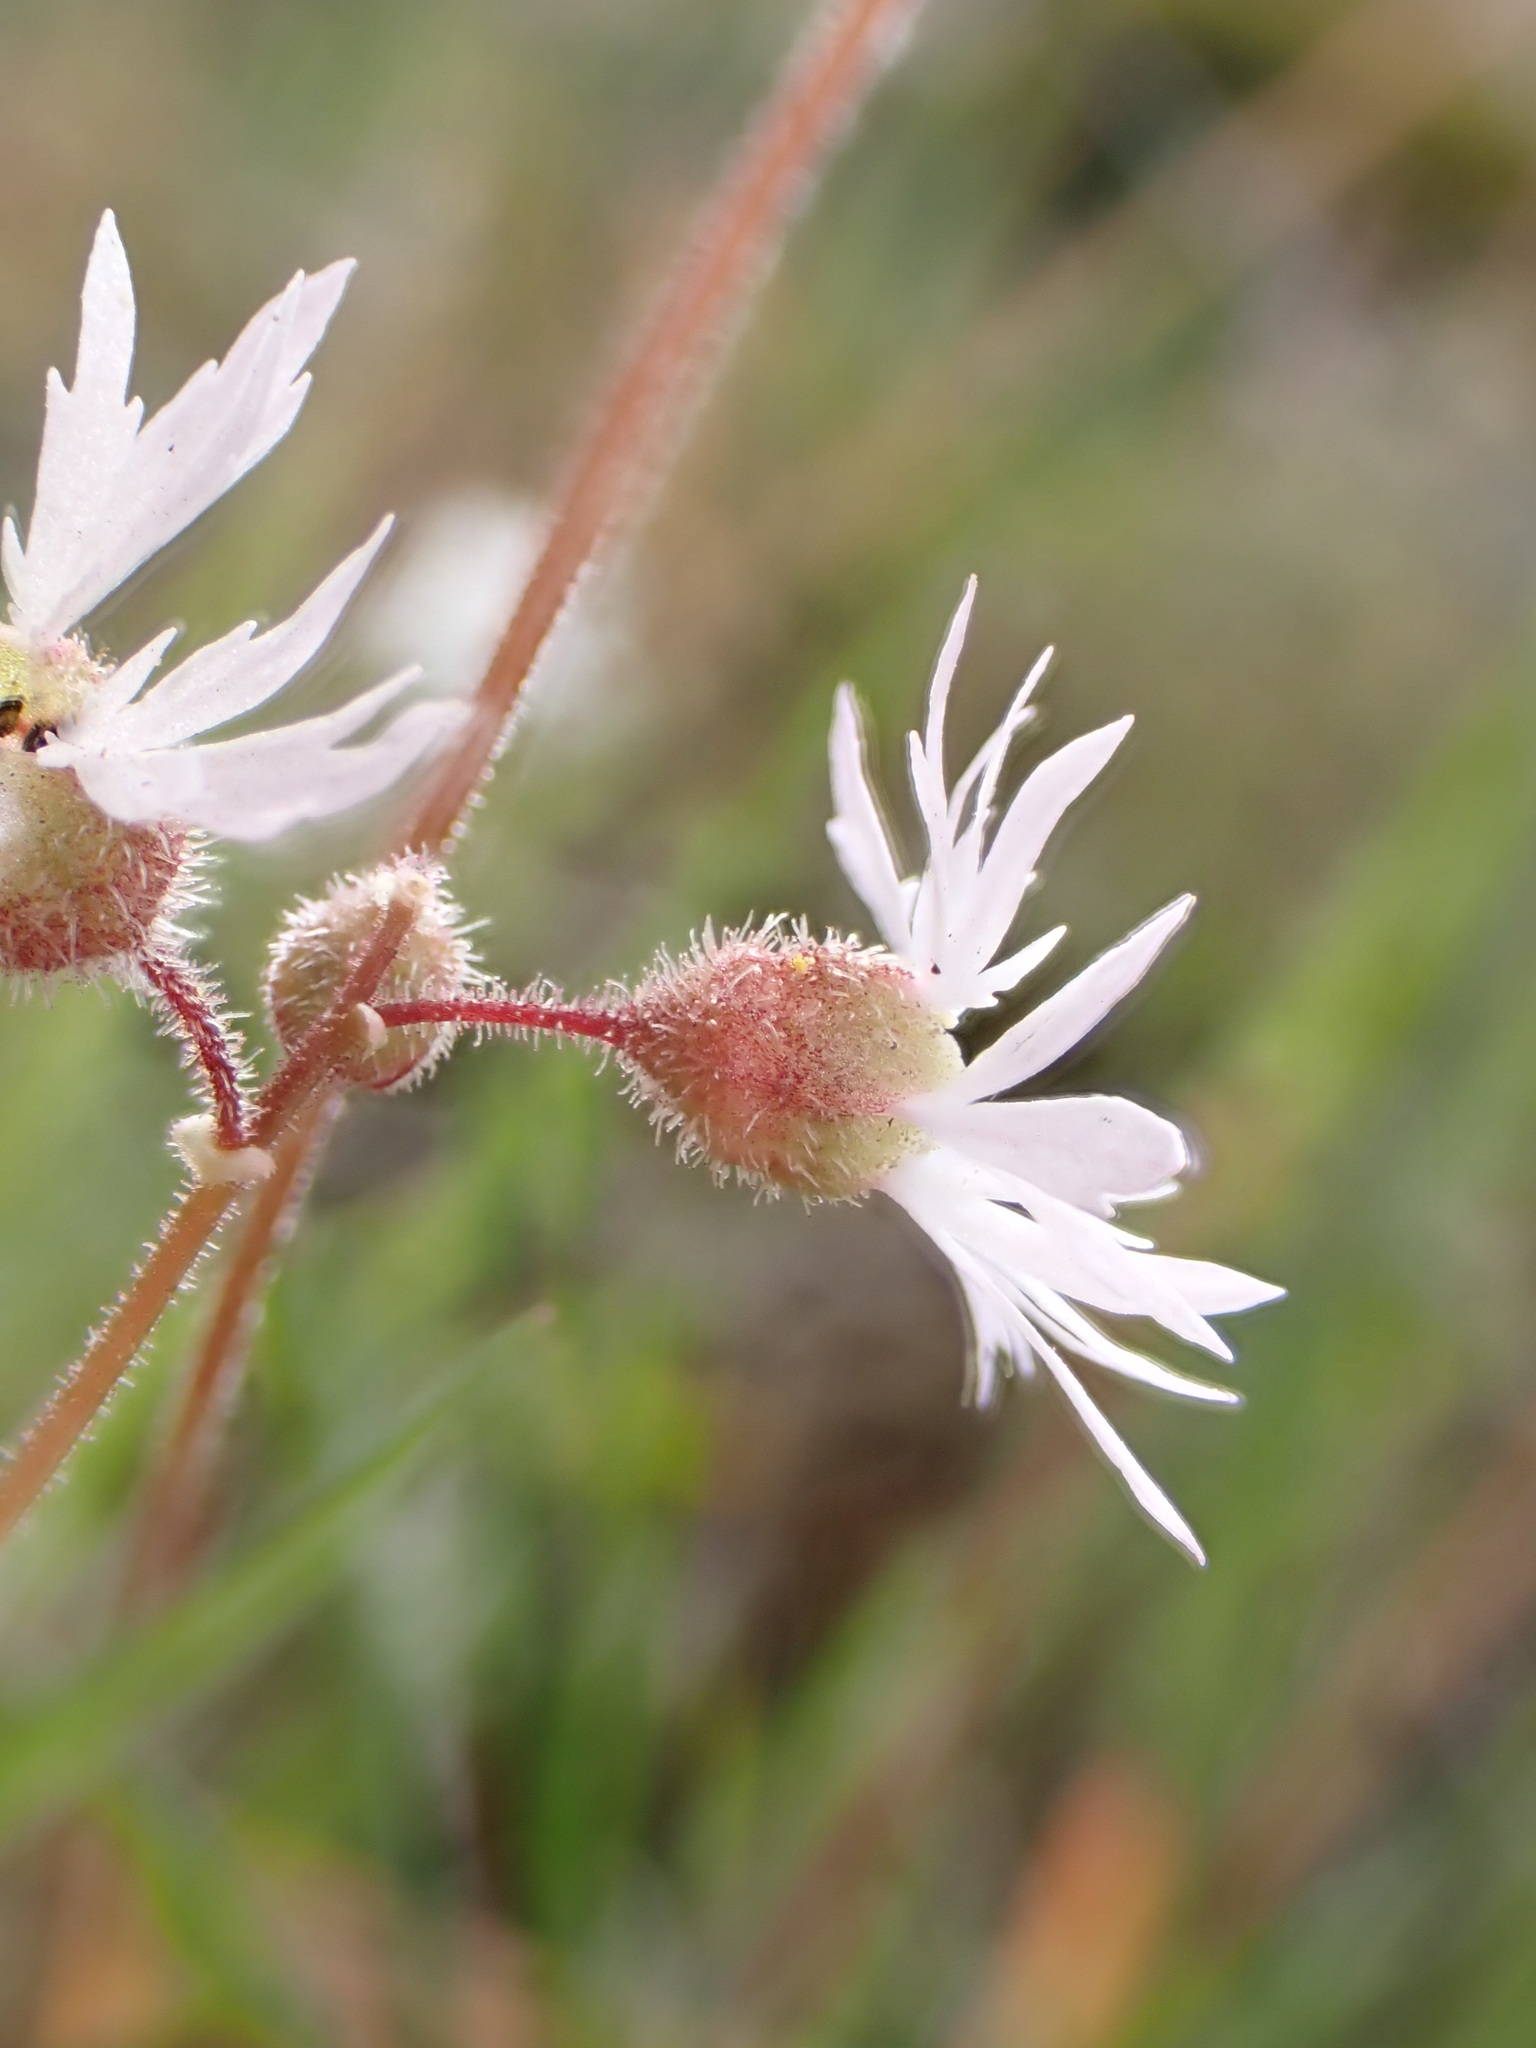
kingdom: Plantae
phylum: Tracheophyta
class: Magnoliopsida
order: Saxifragales
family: Saxifragaceae
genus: Lithophragma
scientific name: Lithophragma glabrum
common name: Bulbous prairie-star
